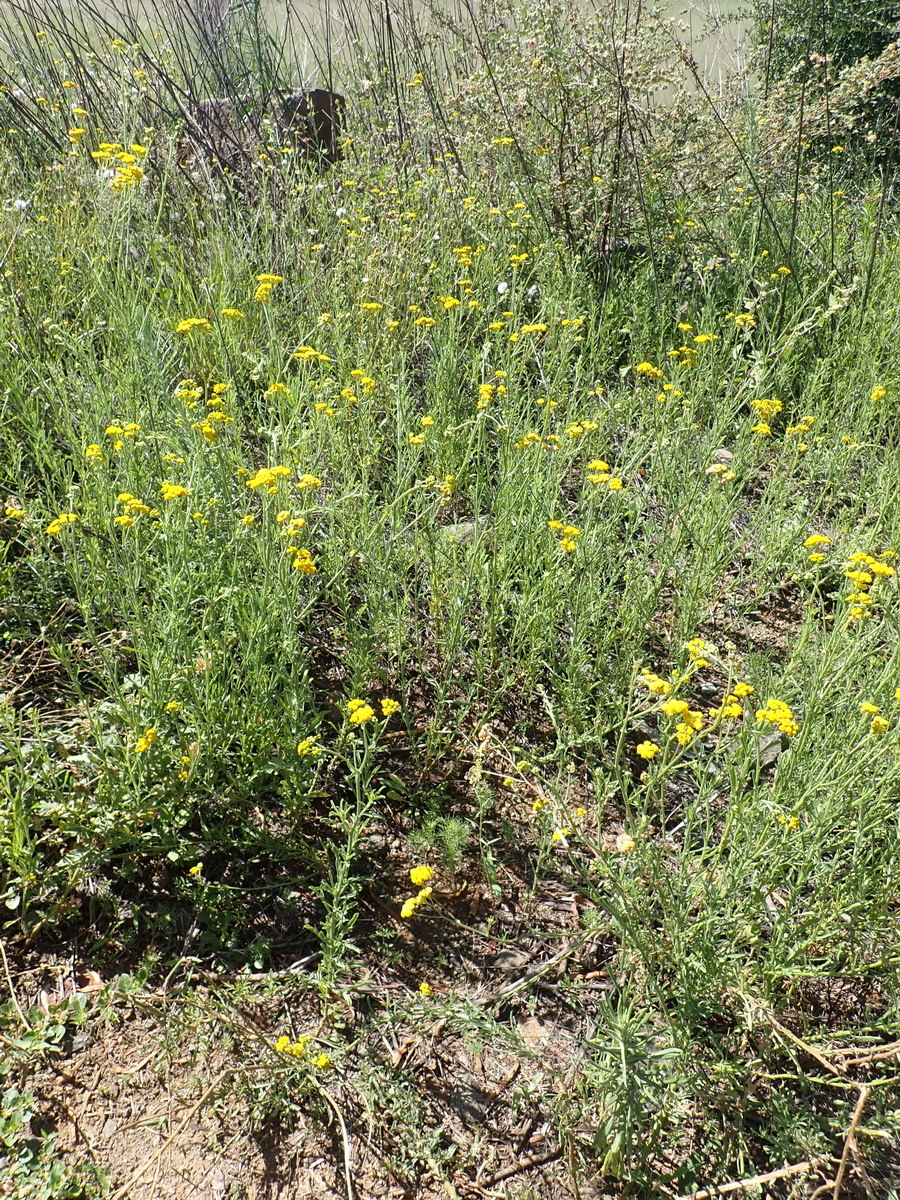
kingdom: Plantae
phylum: Tracheophyta
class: Magnoliopsida
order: Asterales
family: Asteraceae
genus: Nidorella
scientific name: Nidorella resedifolia
